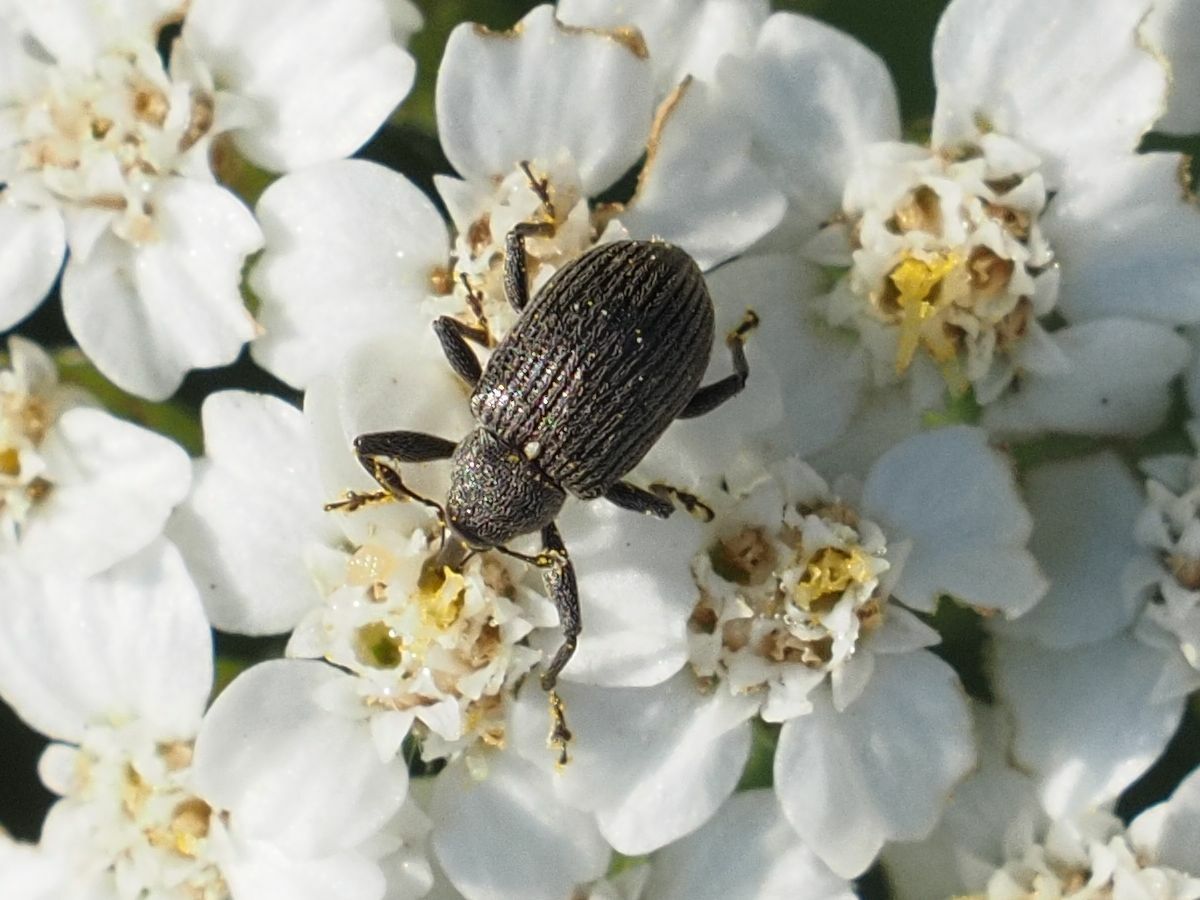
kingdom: Animalia
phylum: Arthropoda
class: Insecta
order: Coleoptera
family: Curculionidae
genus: Anthonomus
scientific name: Anthonomus rubi
